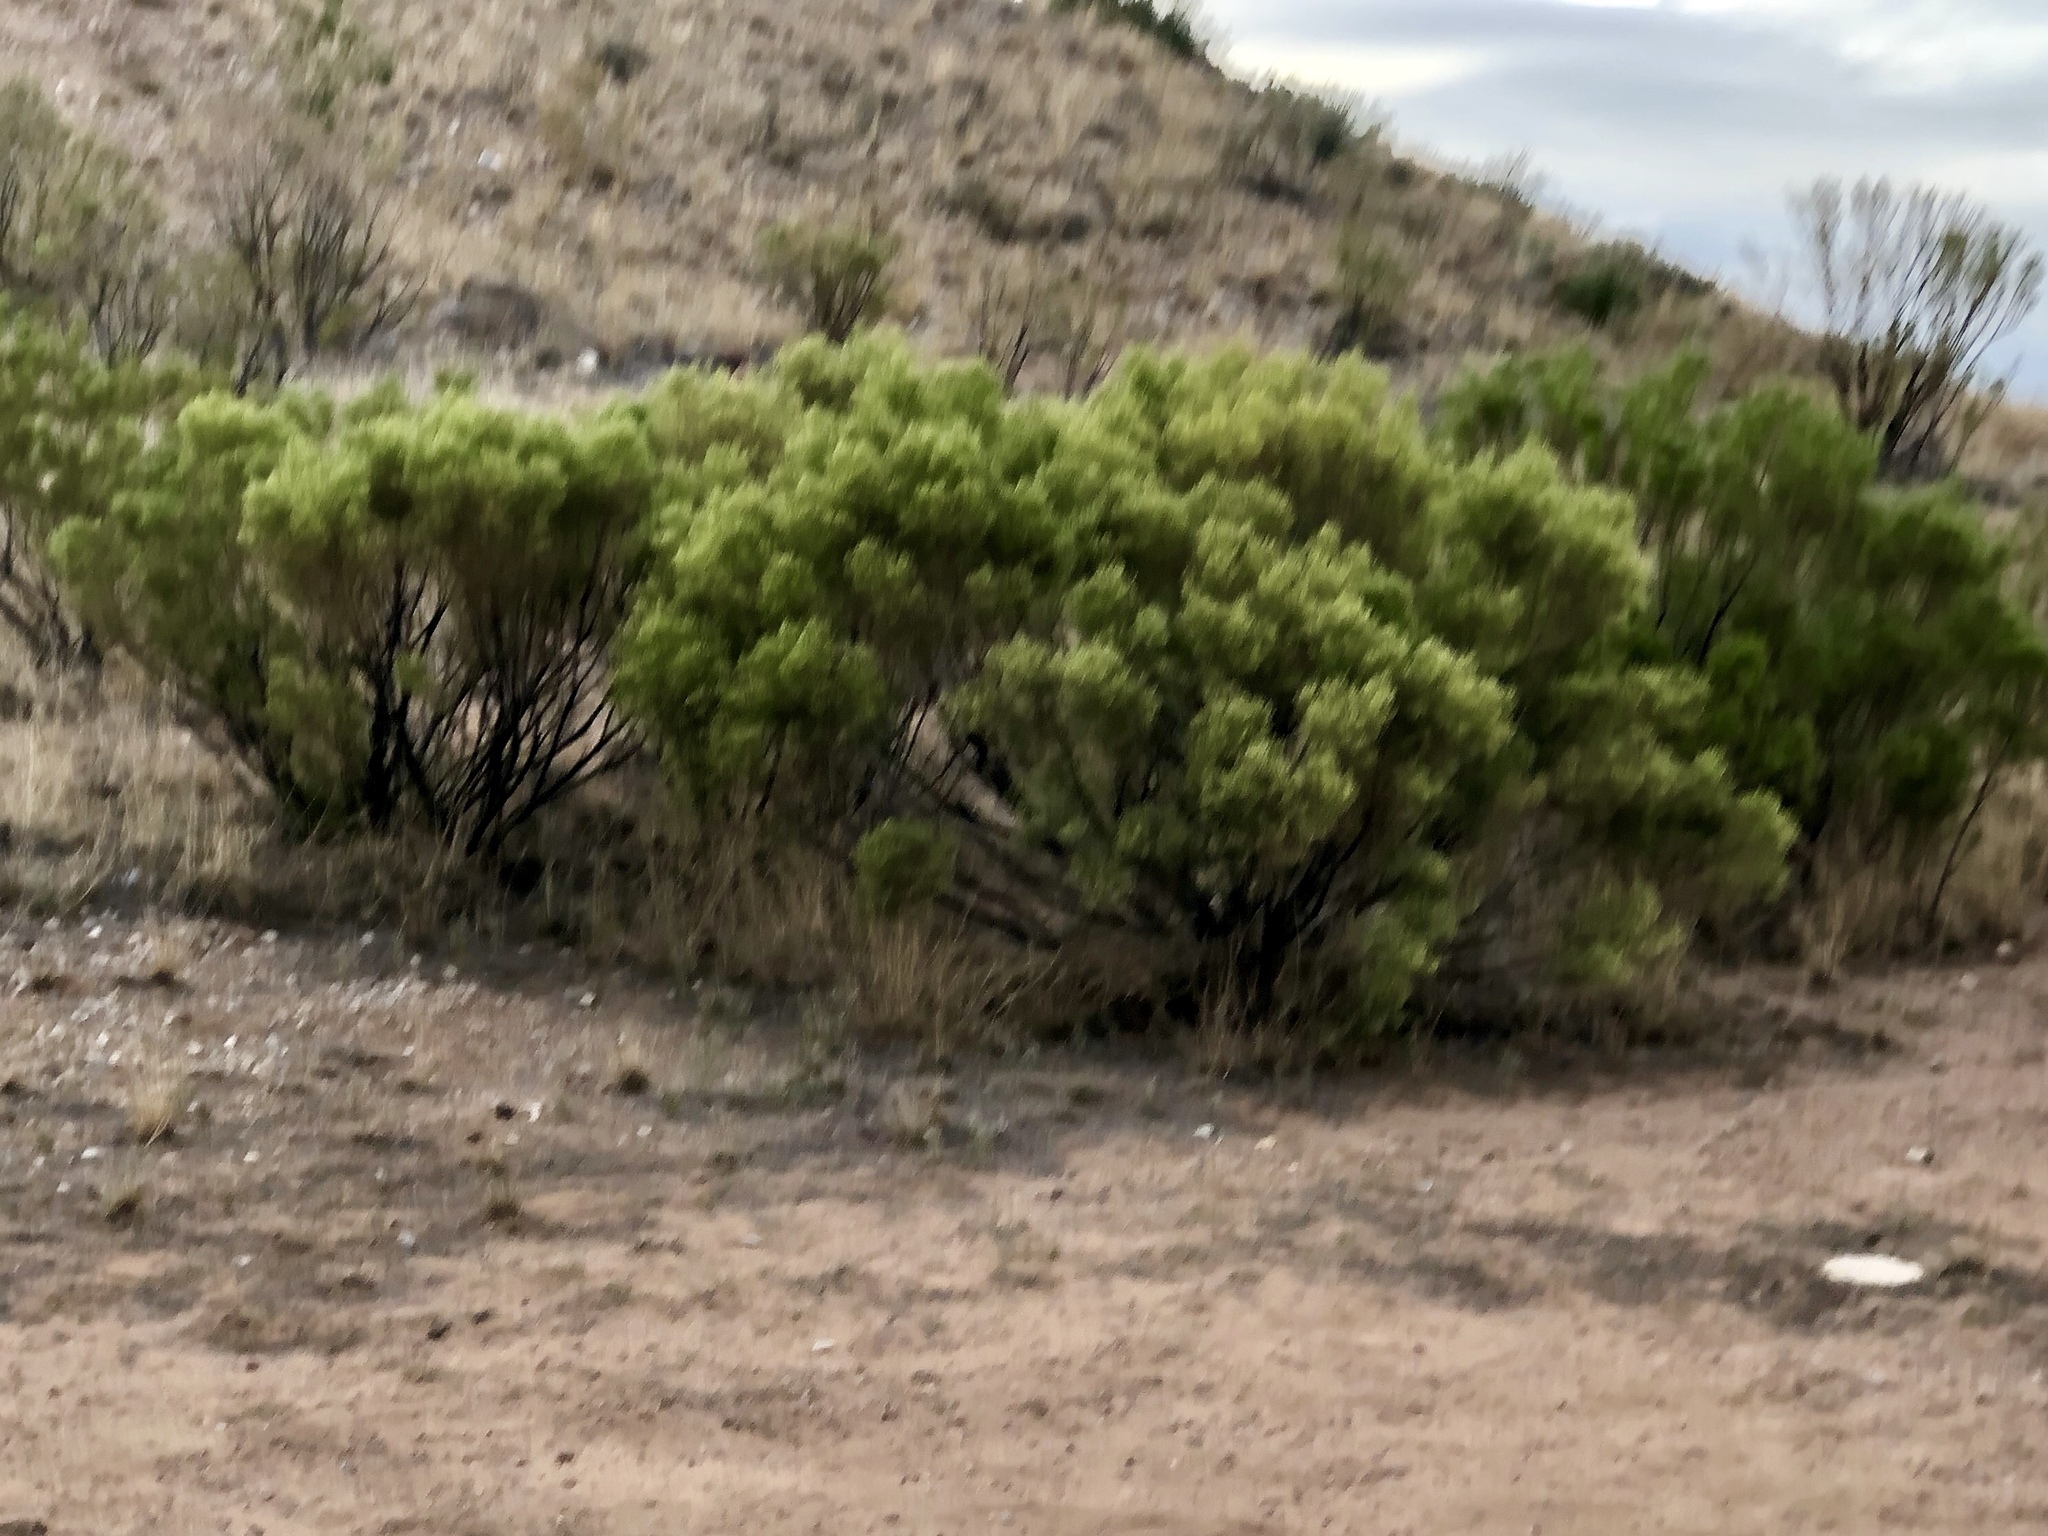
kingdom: Plantae
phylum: Tracheophyta
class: Magnoliopsida
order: Asterales
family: Asteraceae
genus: Baccharis
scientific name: Baccharis sarothroides
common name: Desert-broom
